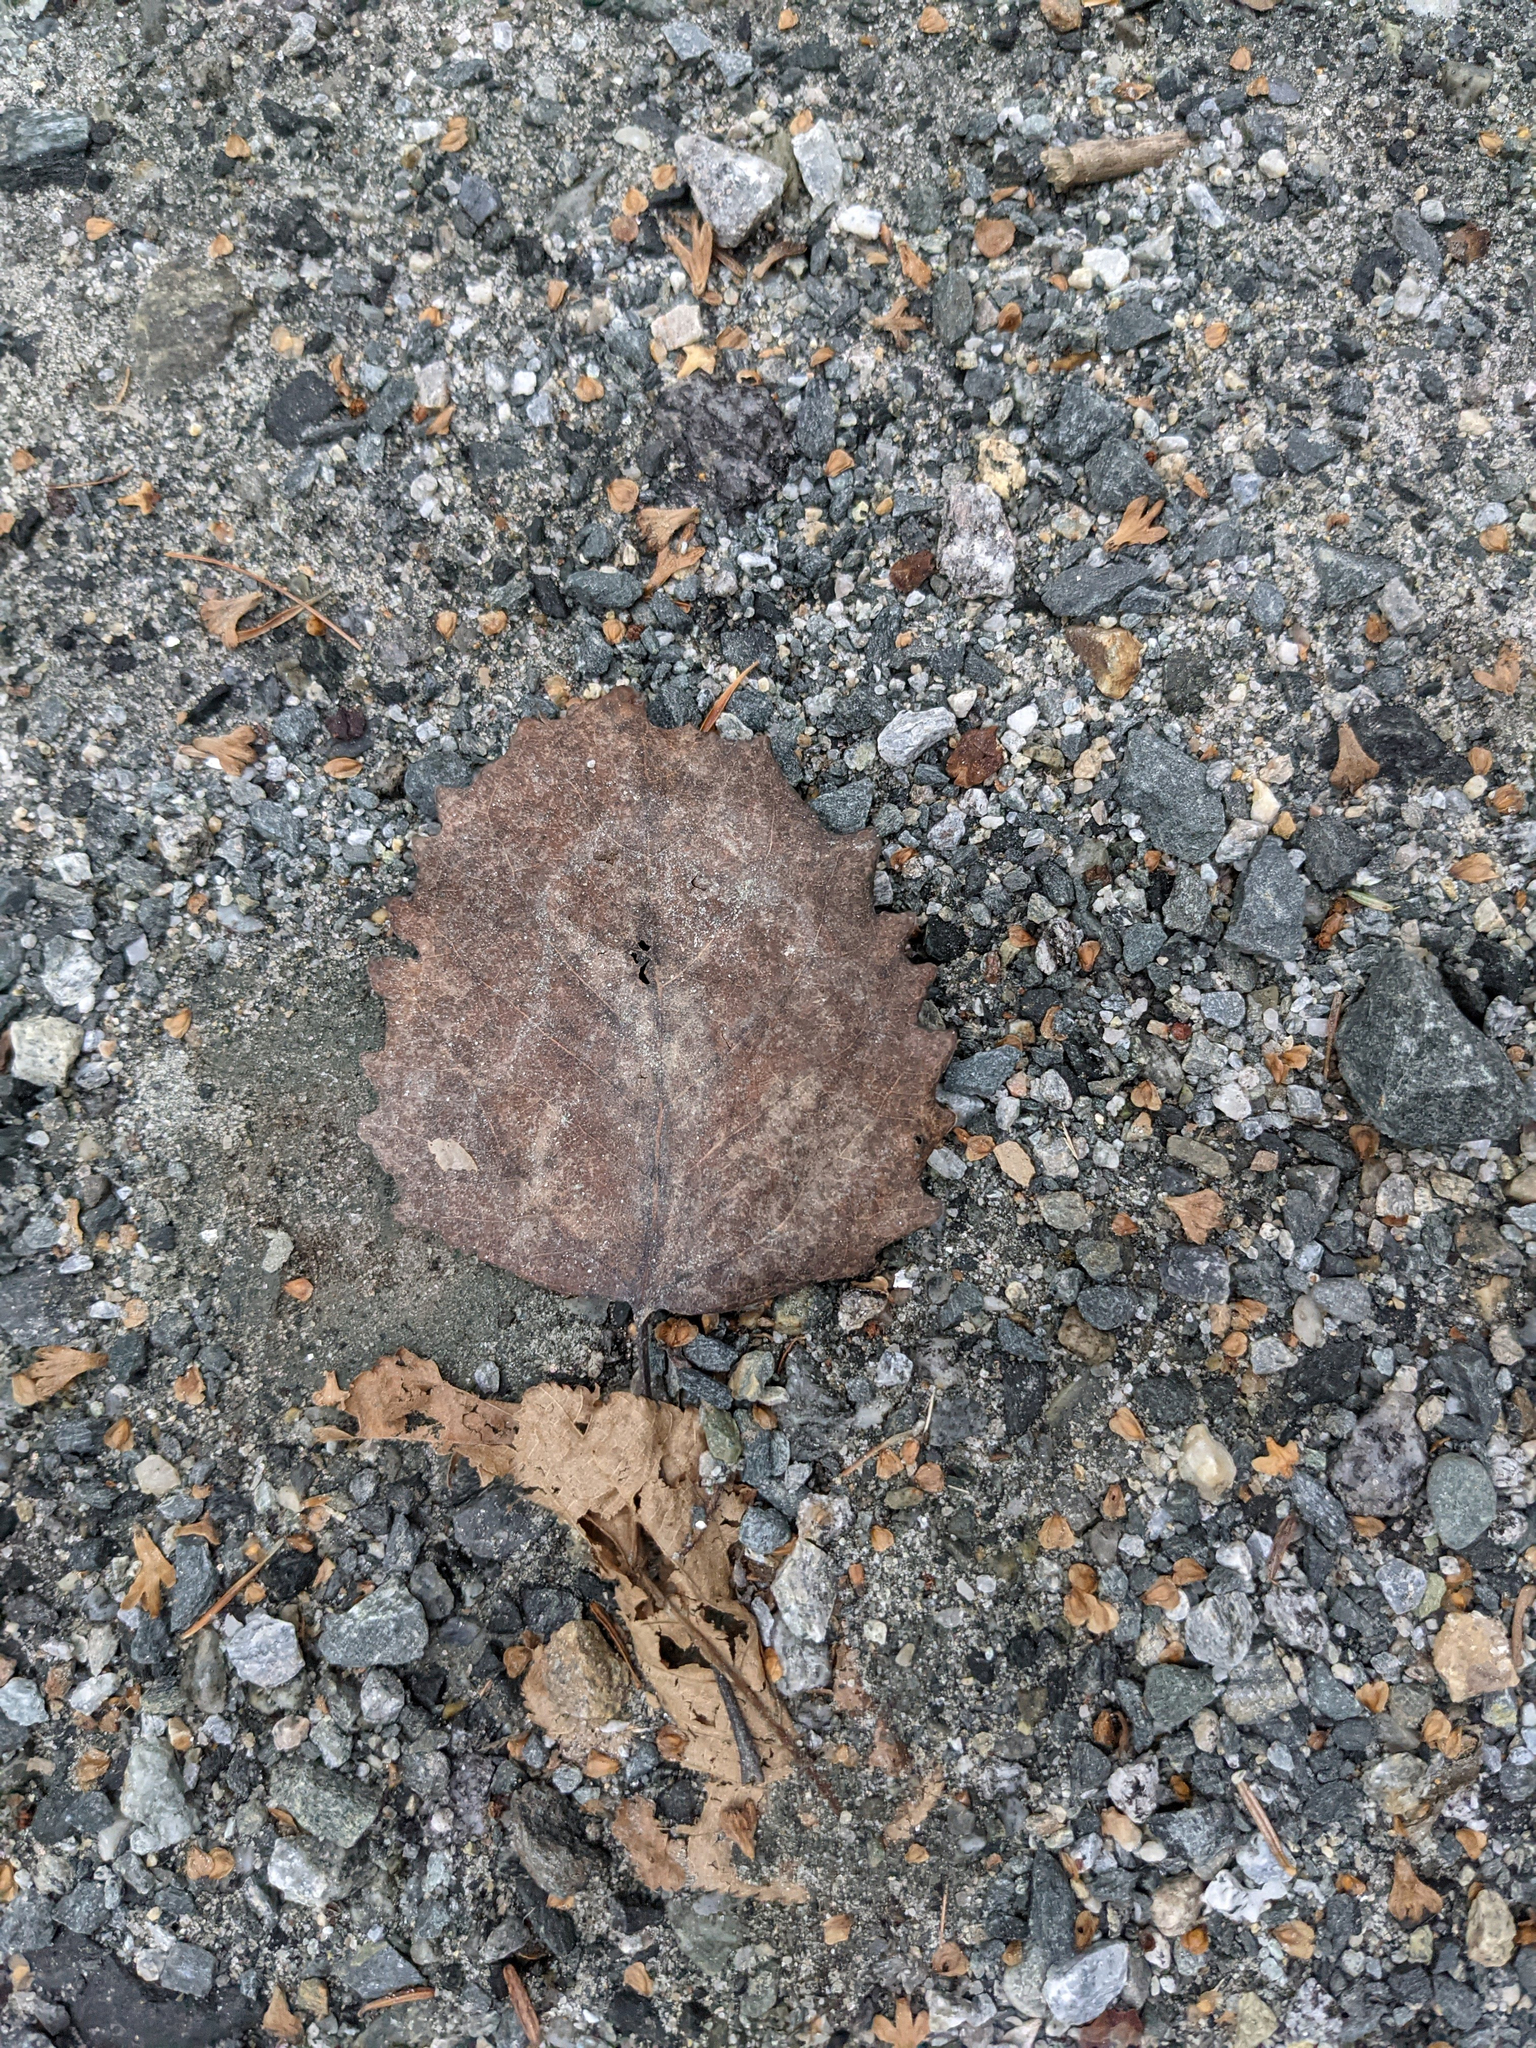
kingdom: Plantae
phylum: Tracheophyta
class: Magnoliopsida
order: Malpighiales
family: Salicaceae
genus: Populus
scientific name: Populus grandidentata
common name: Bigtooth aspen
